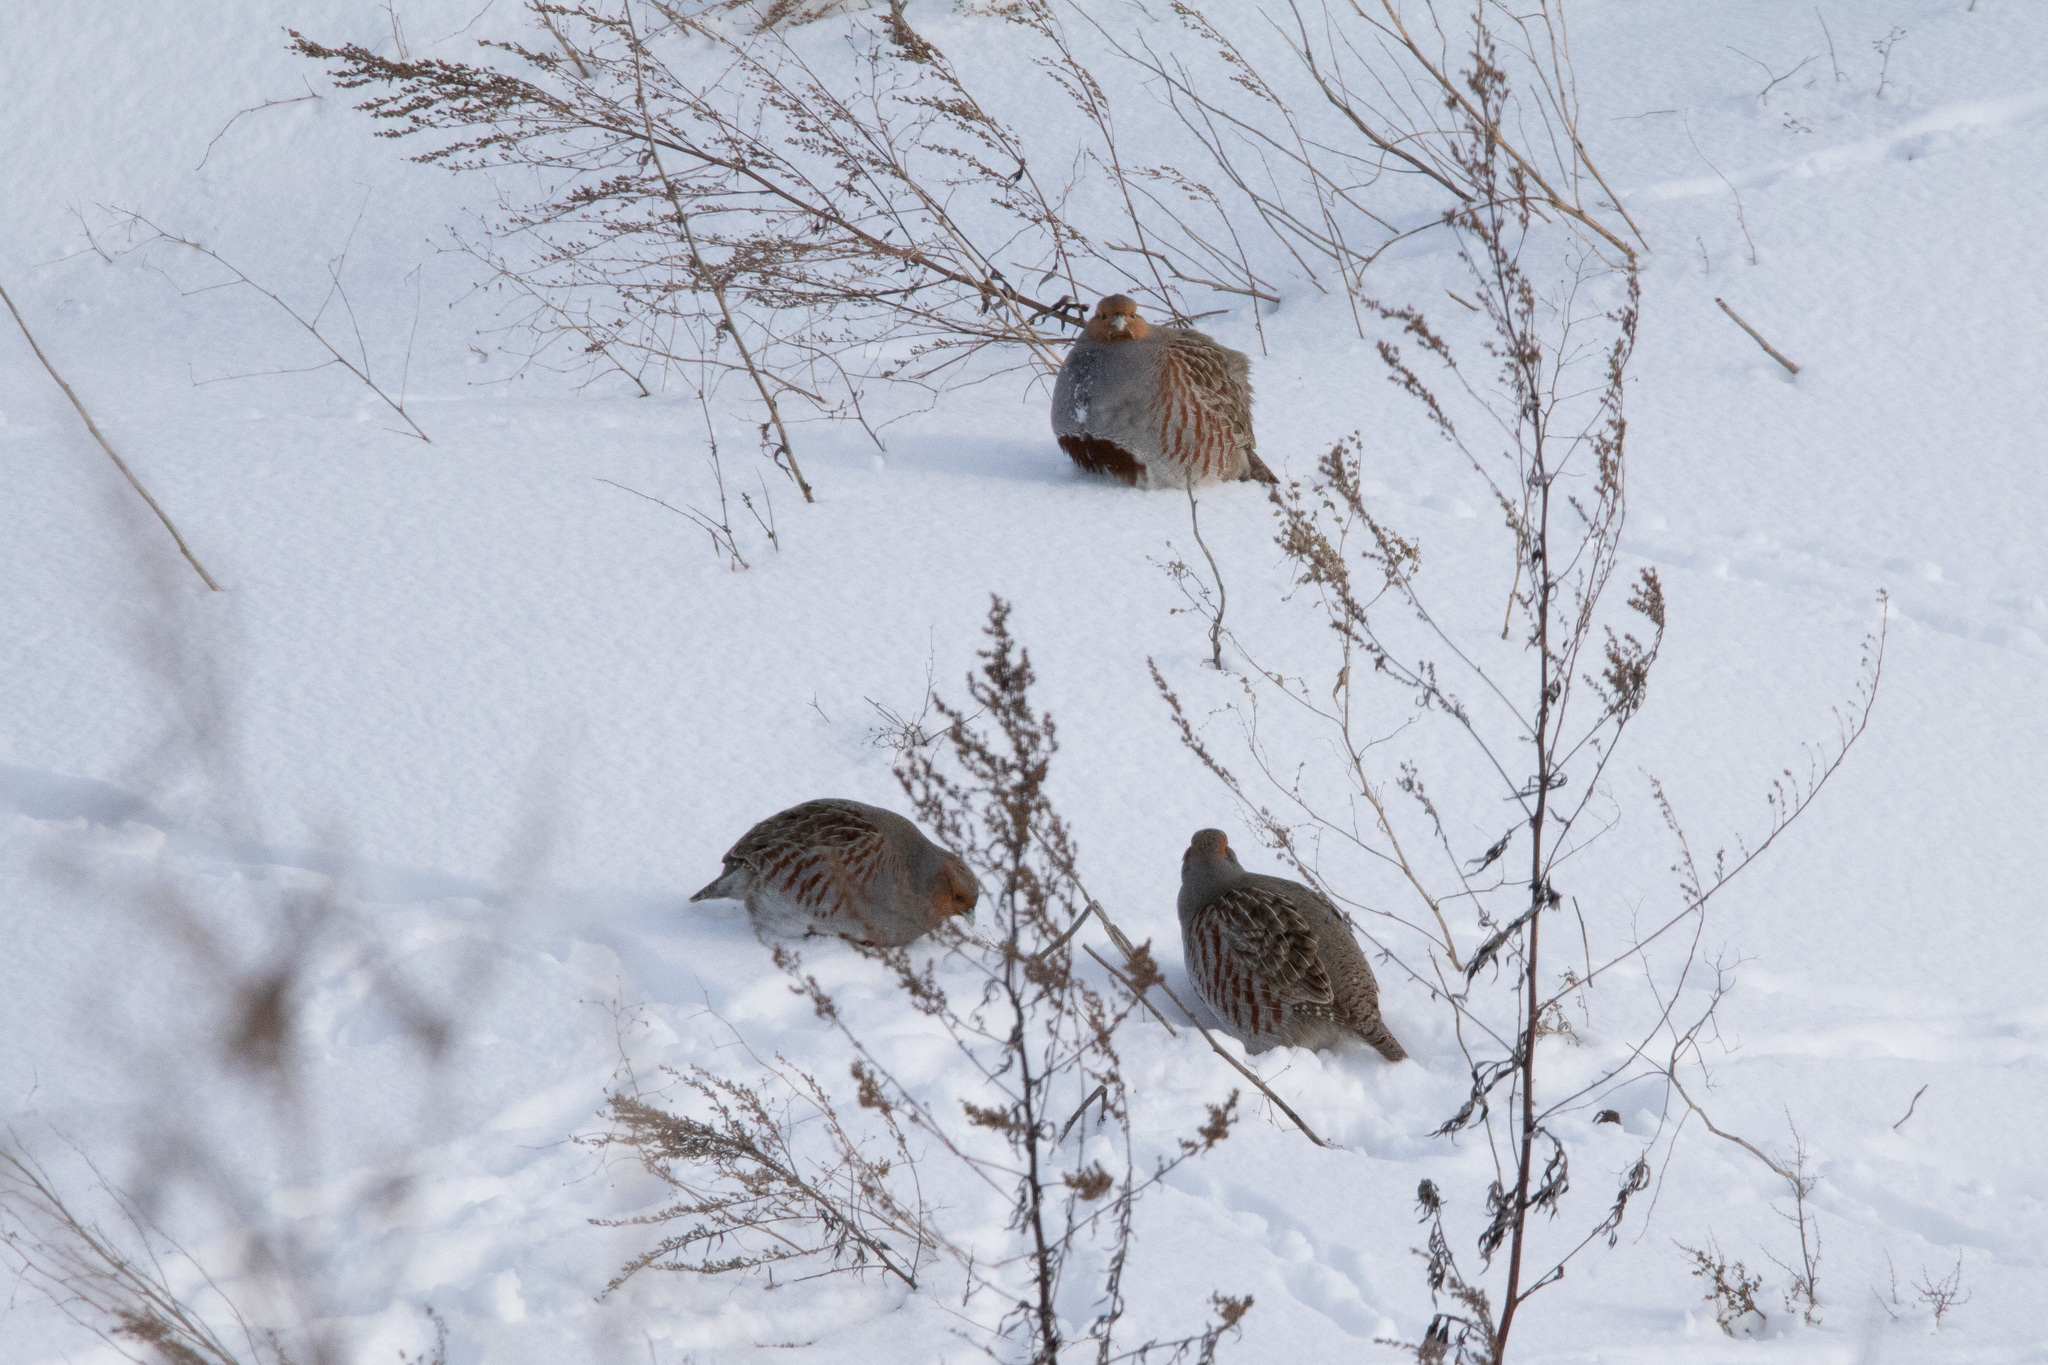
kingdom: Animalia
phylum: Chordata
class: Aves
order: Galliformes
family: Phasianidae
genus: Perdix
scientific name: Perdix perdix
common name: Grey partridge
